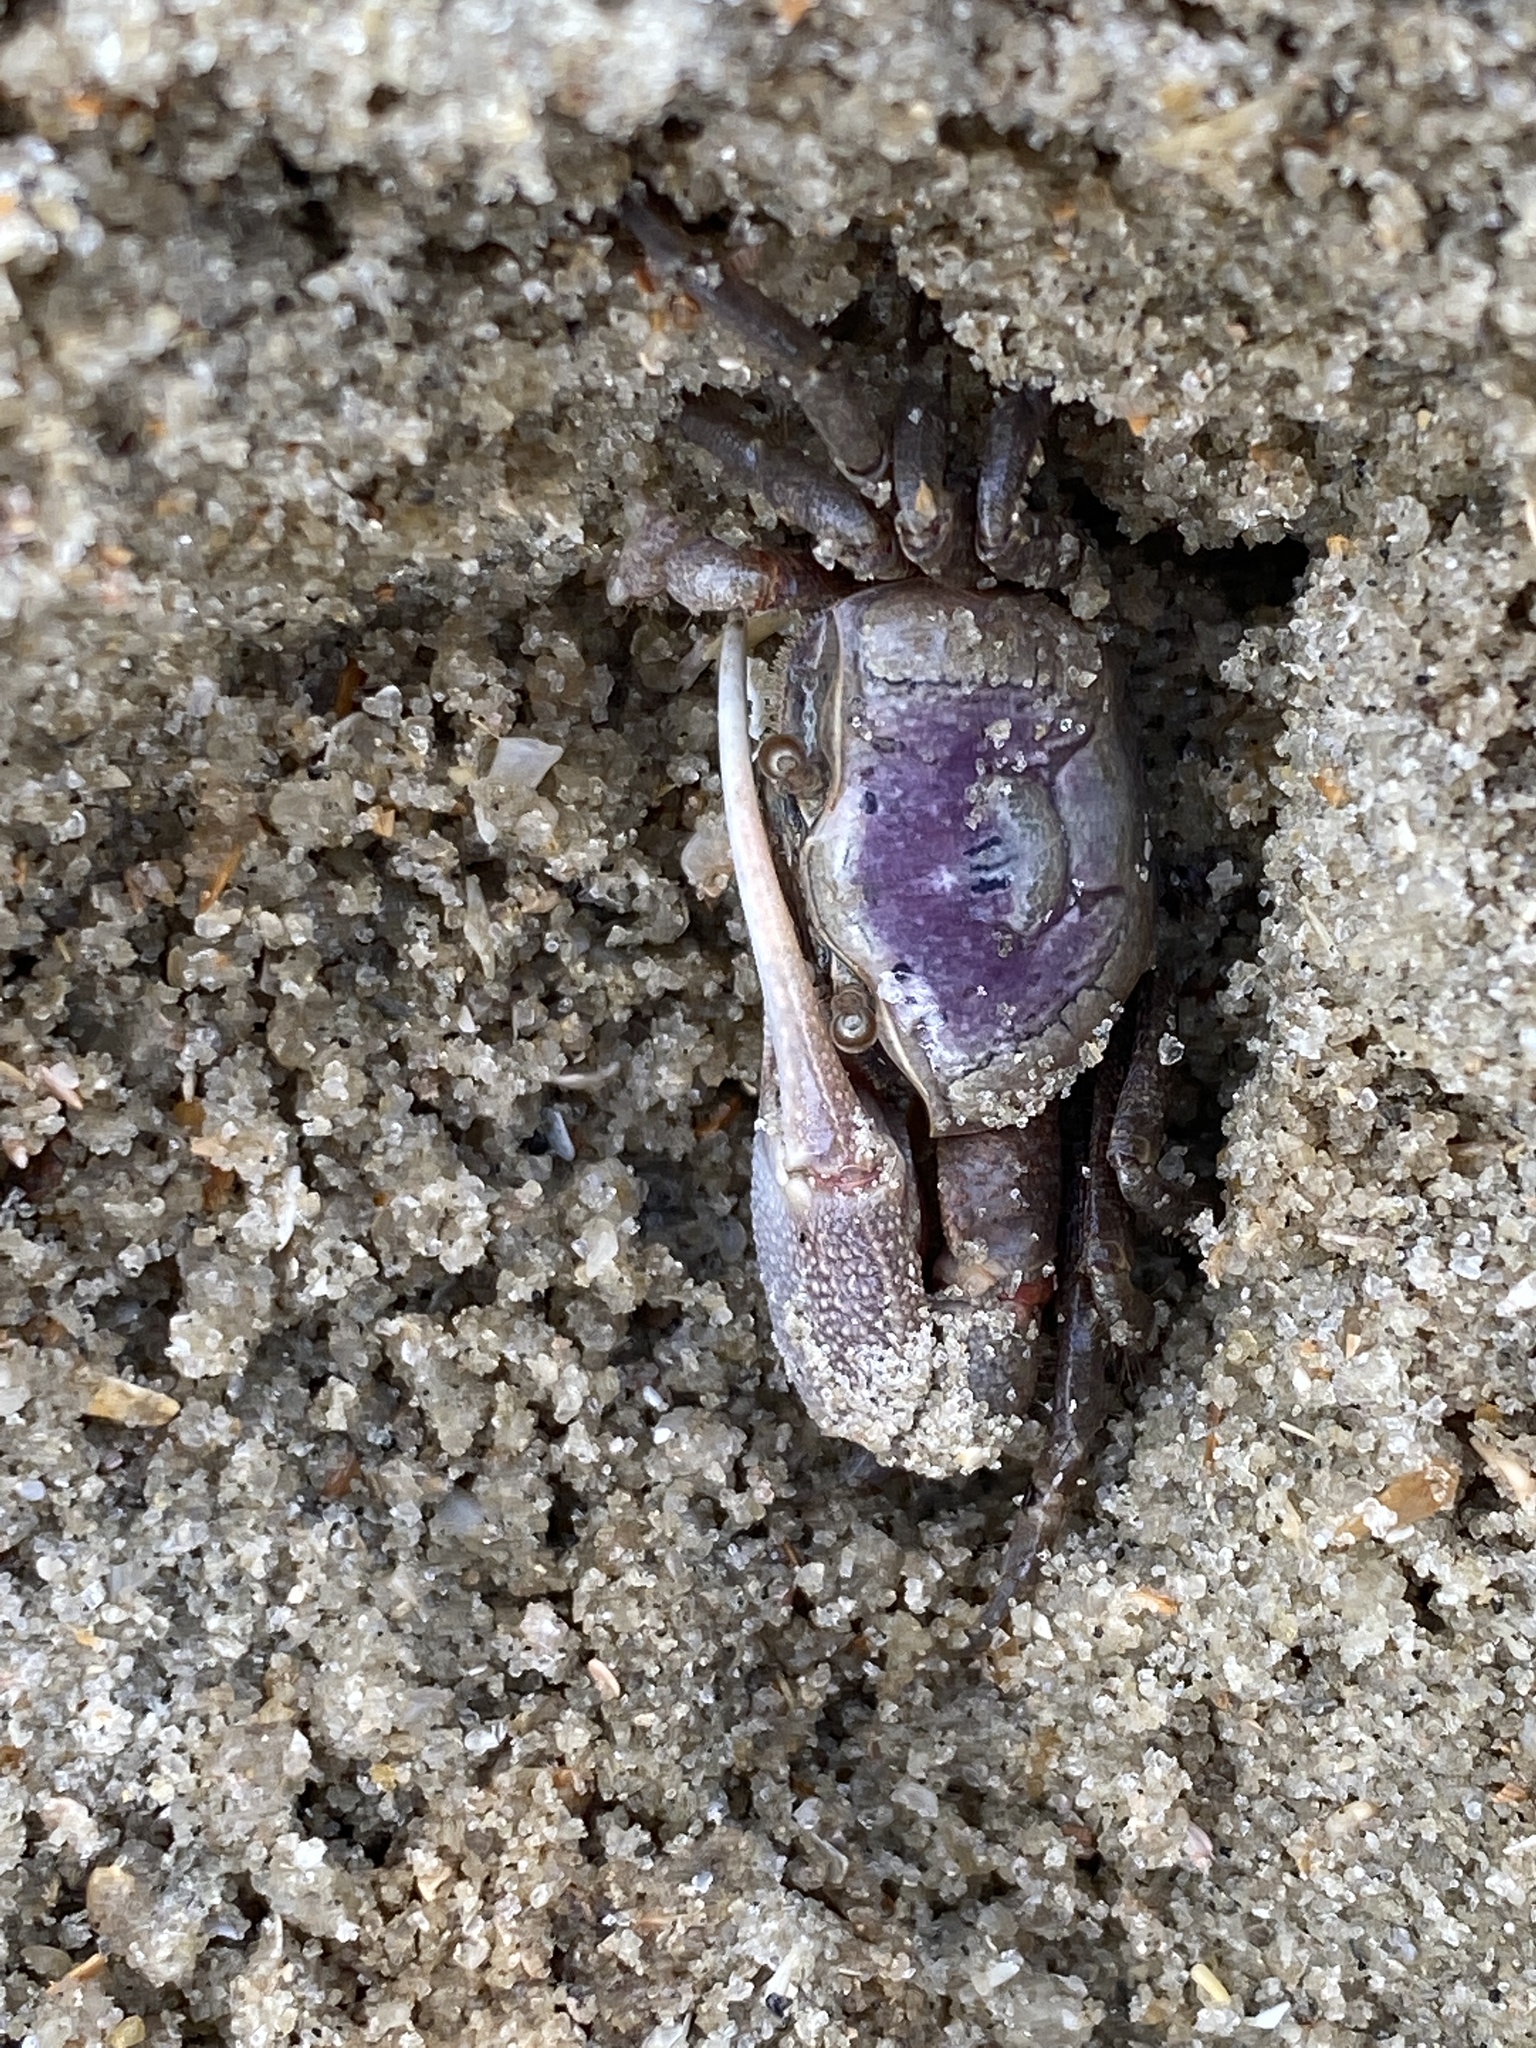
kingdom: Animalia
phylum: Arthropoda
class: Malacostraca
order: Decapoda
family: Ocypodidae
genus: Leptuca
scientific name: Leptuca pugilator
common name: Atlantic sand fiddler crab
